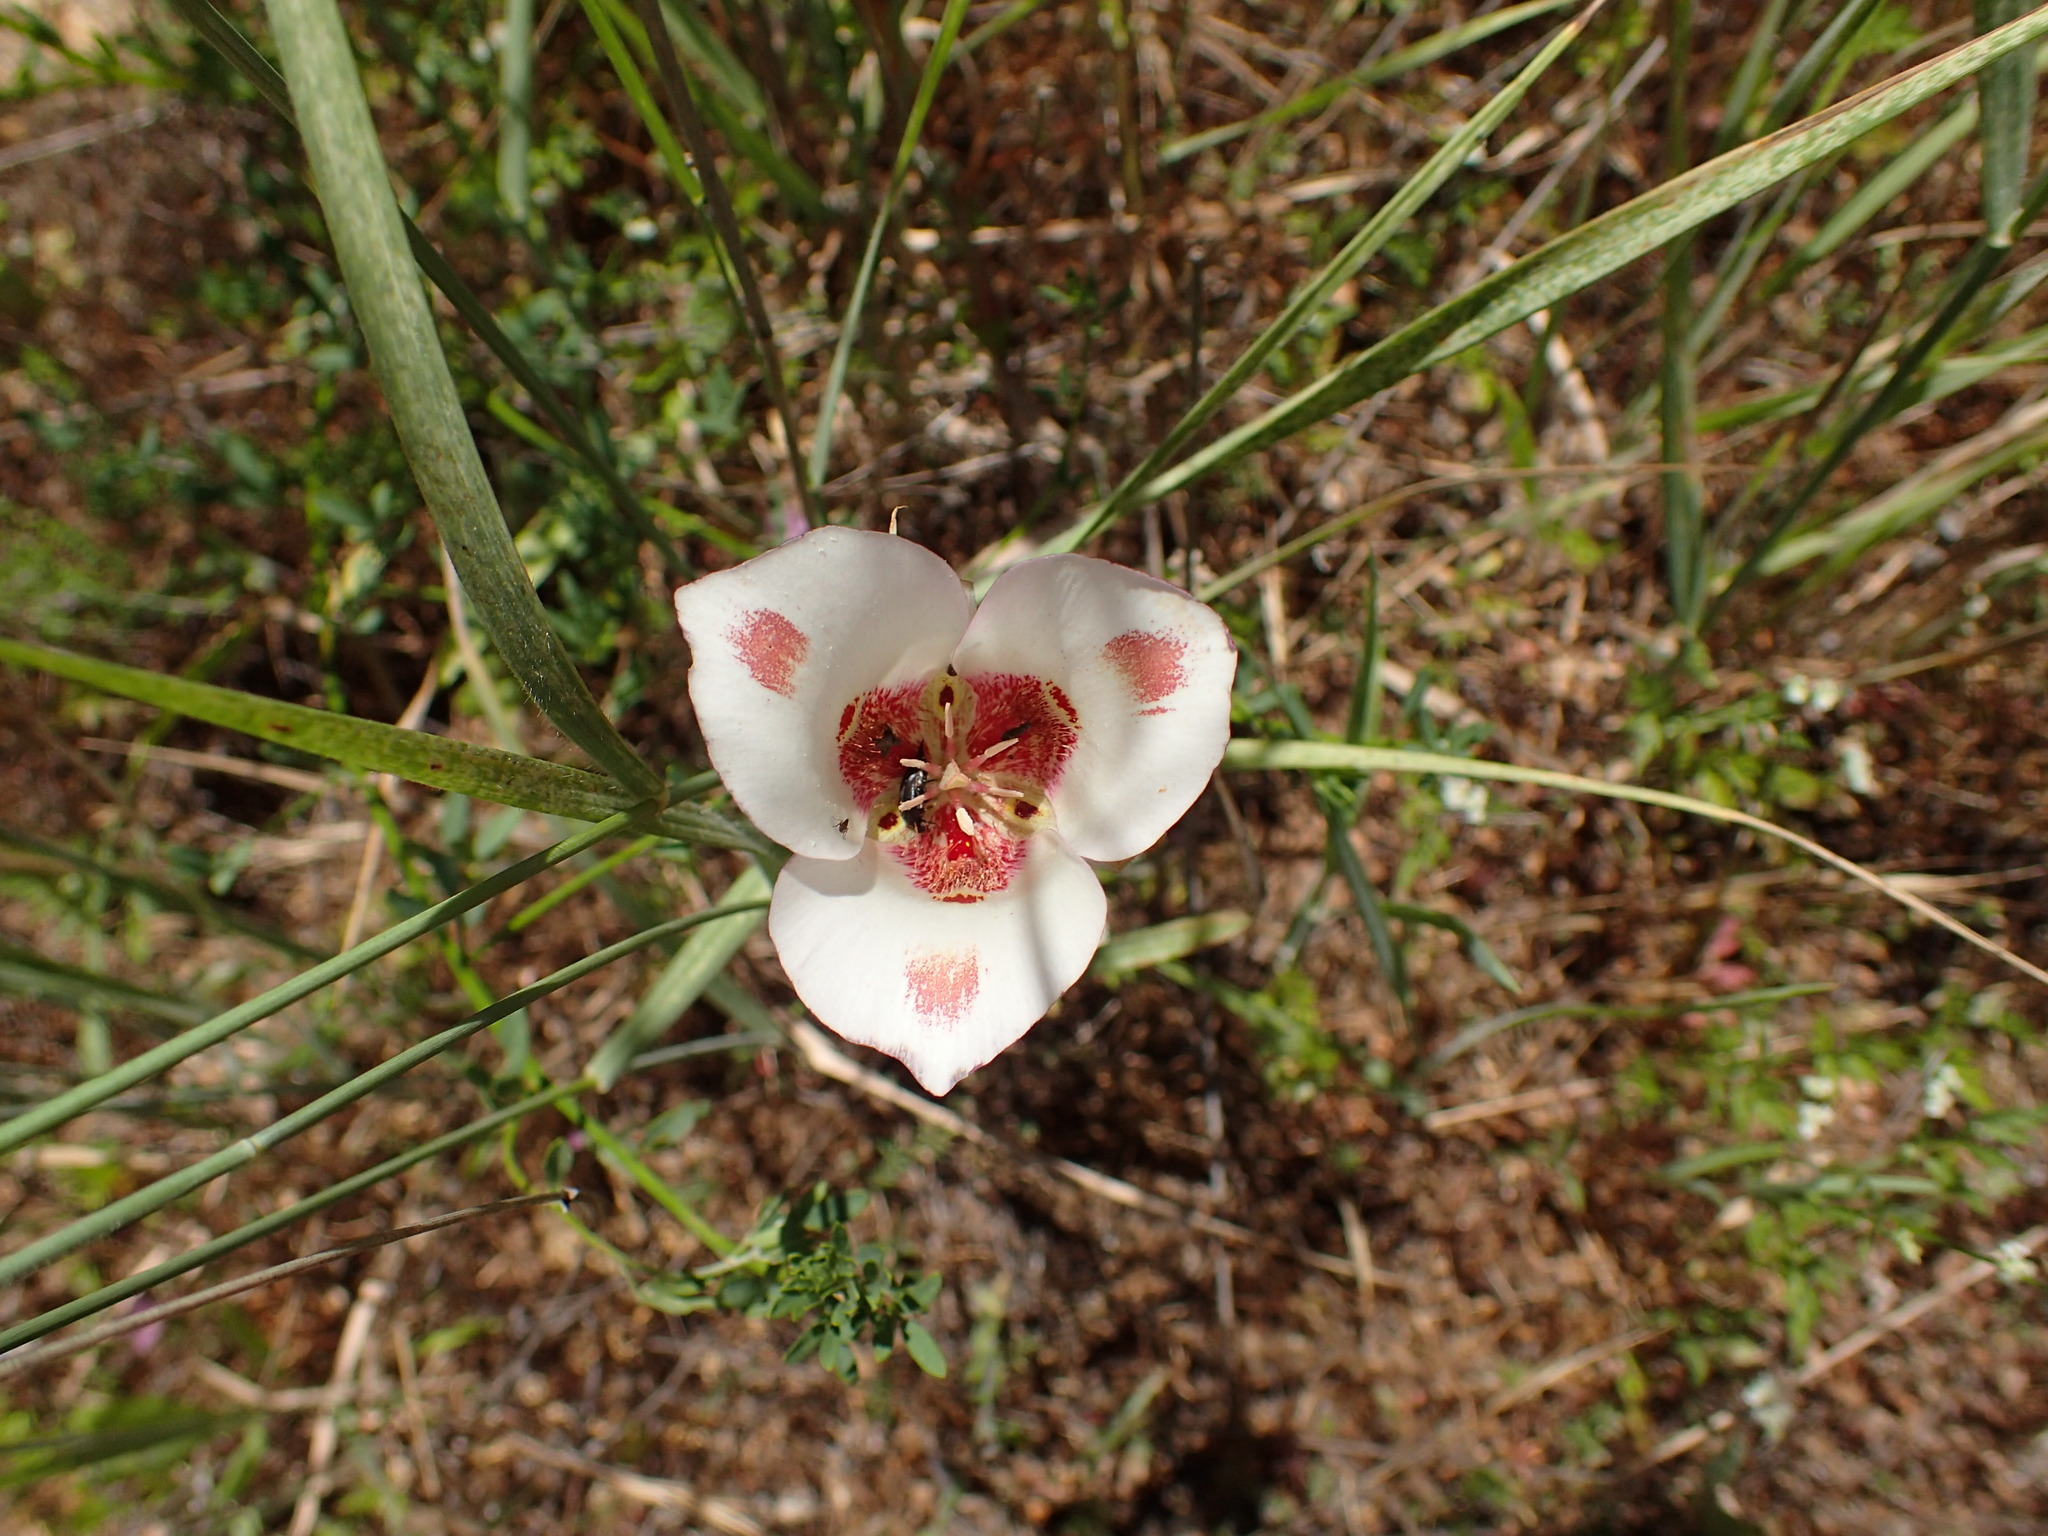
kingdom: Plantae
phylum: Tracheophyta
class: Liliopsida
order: Liliales
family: Liliaceae
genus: Calochortus
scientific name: Calochortus venustus
